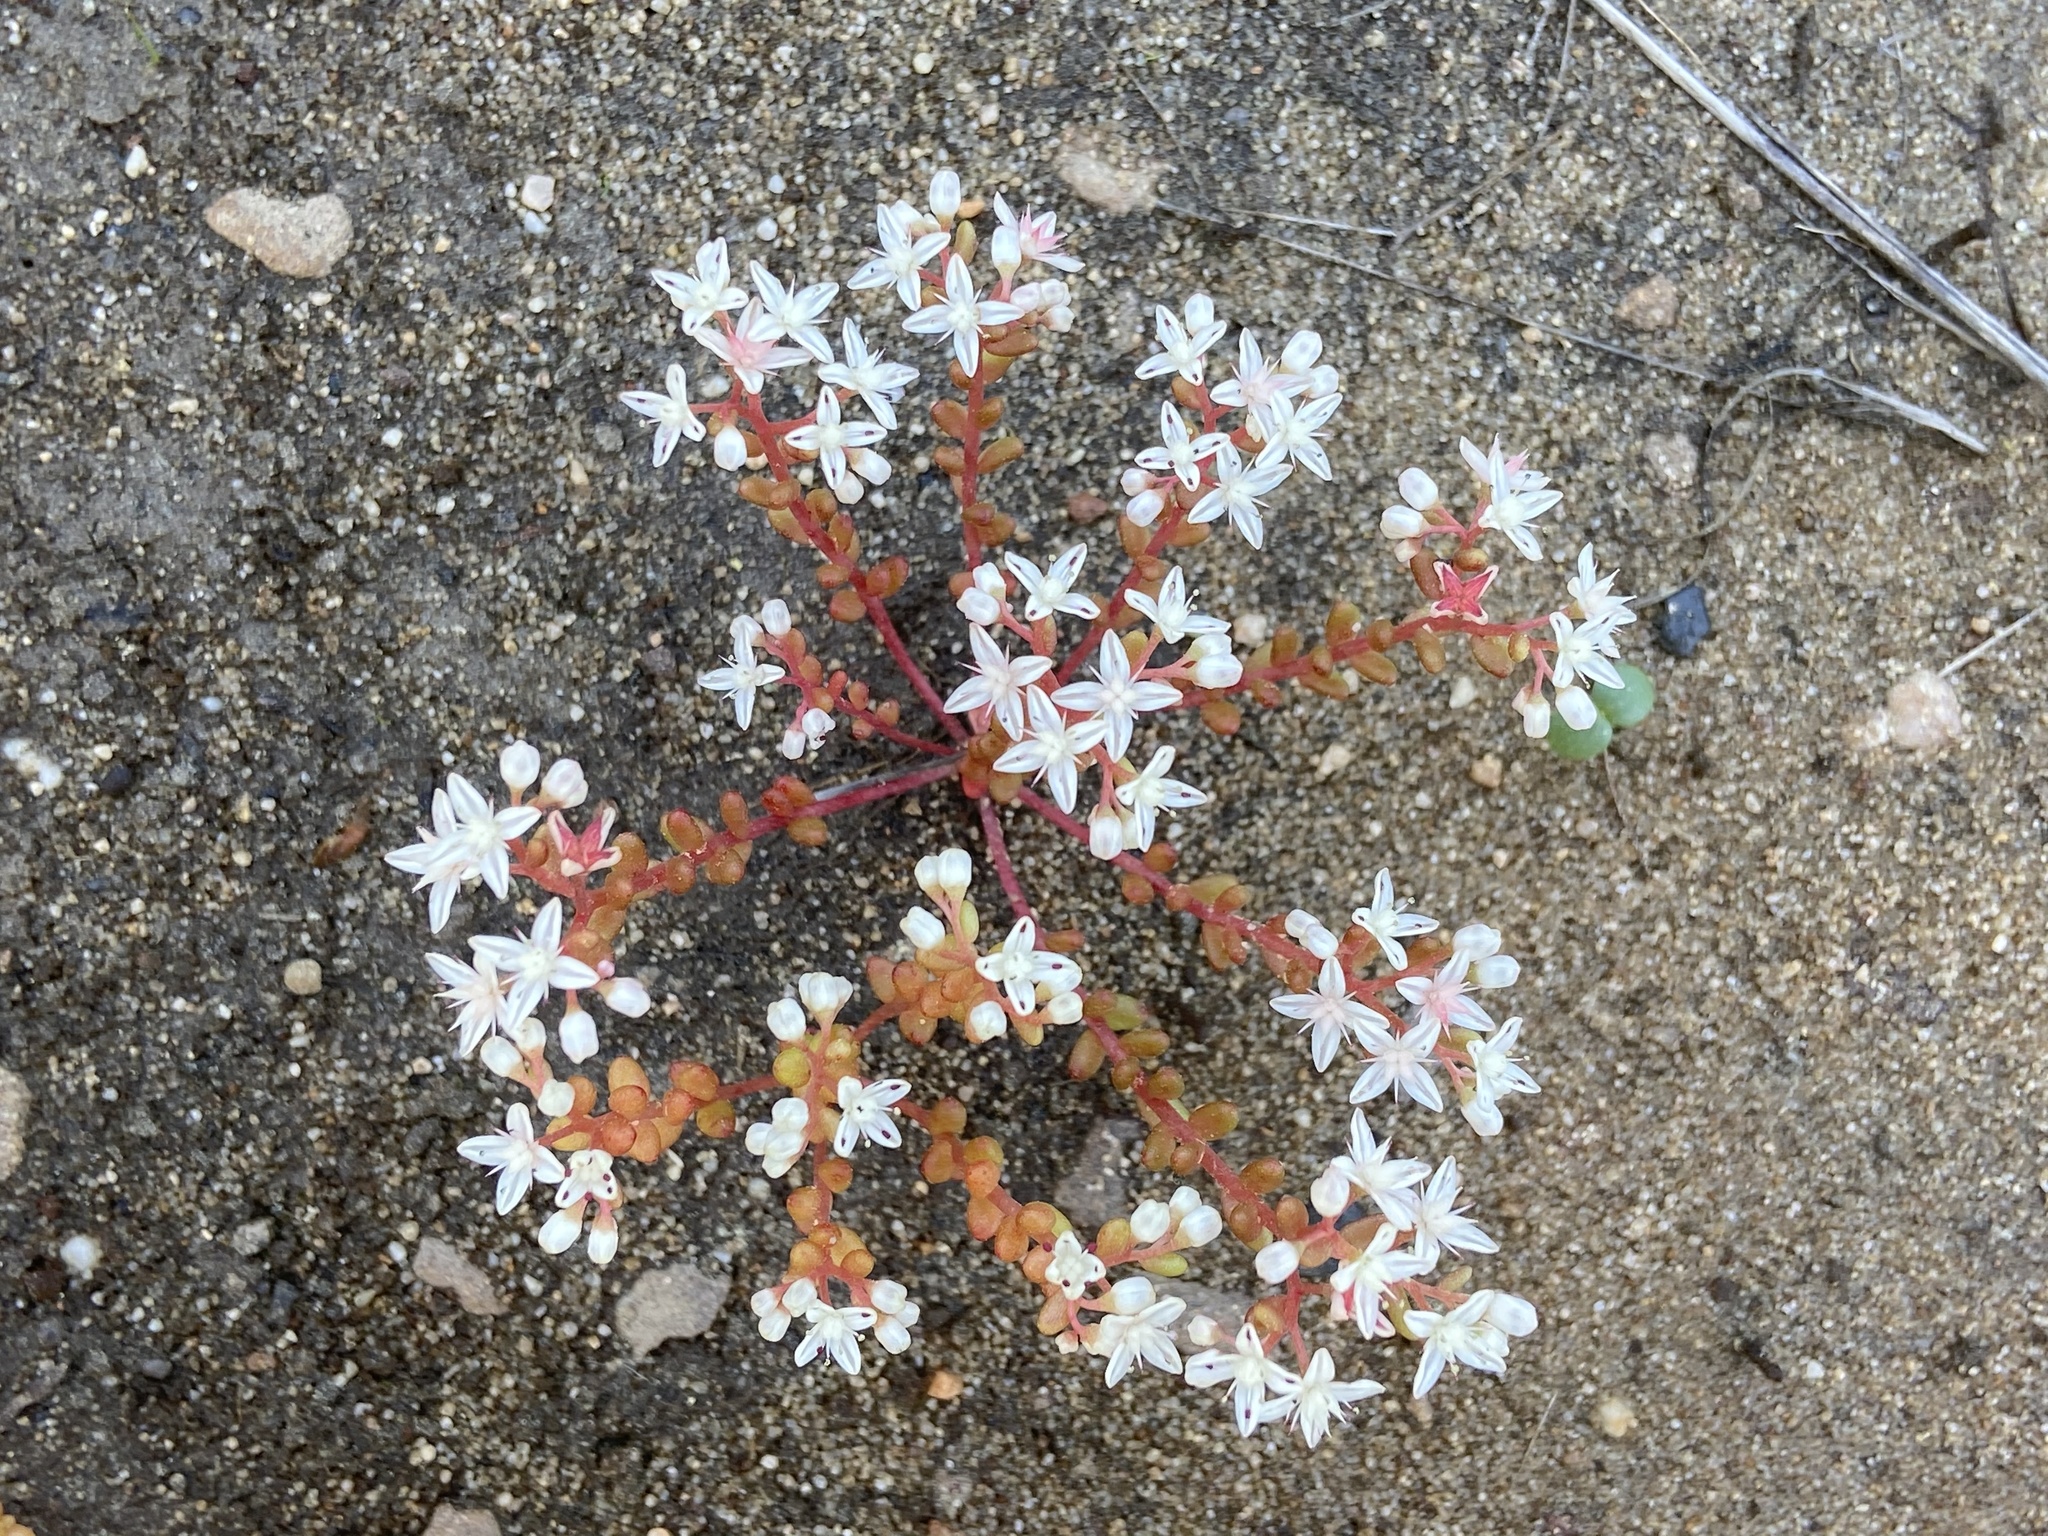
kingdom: Plantae
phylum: Tracheophyta
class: Magnoliopsida
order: Saxifragales
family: Crassulaceae
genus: Sedum
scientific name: Sedum smallii
